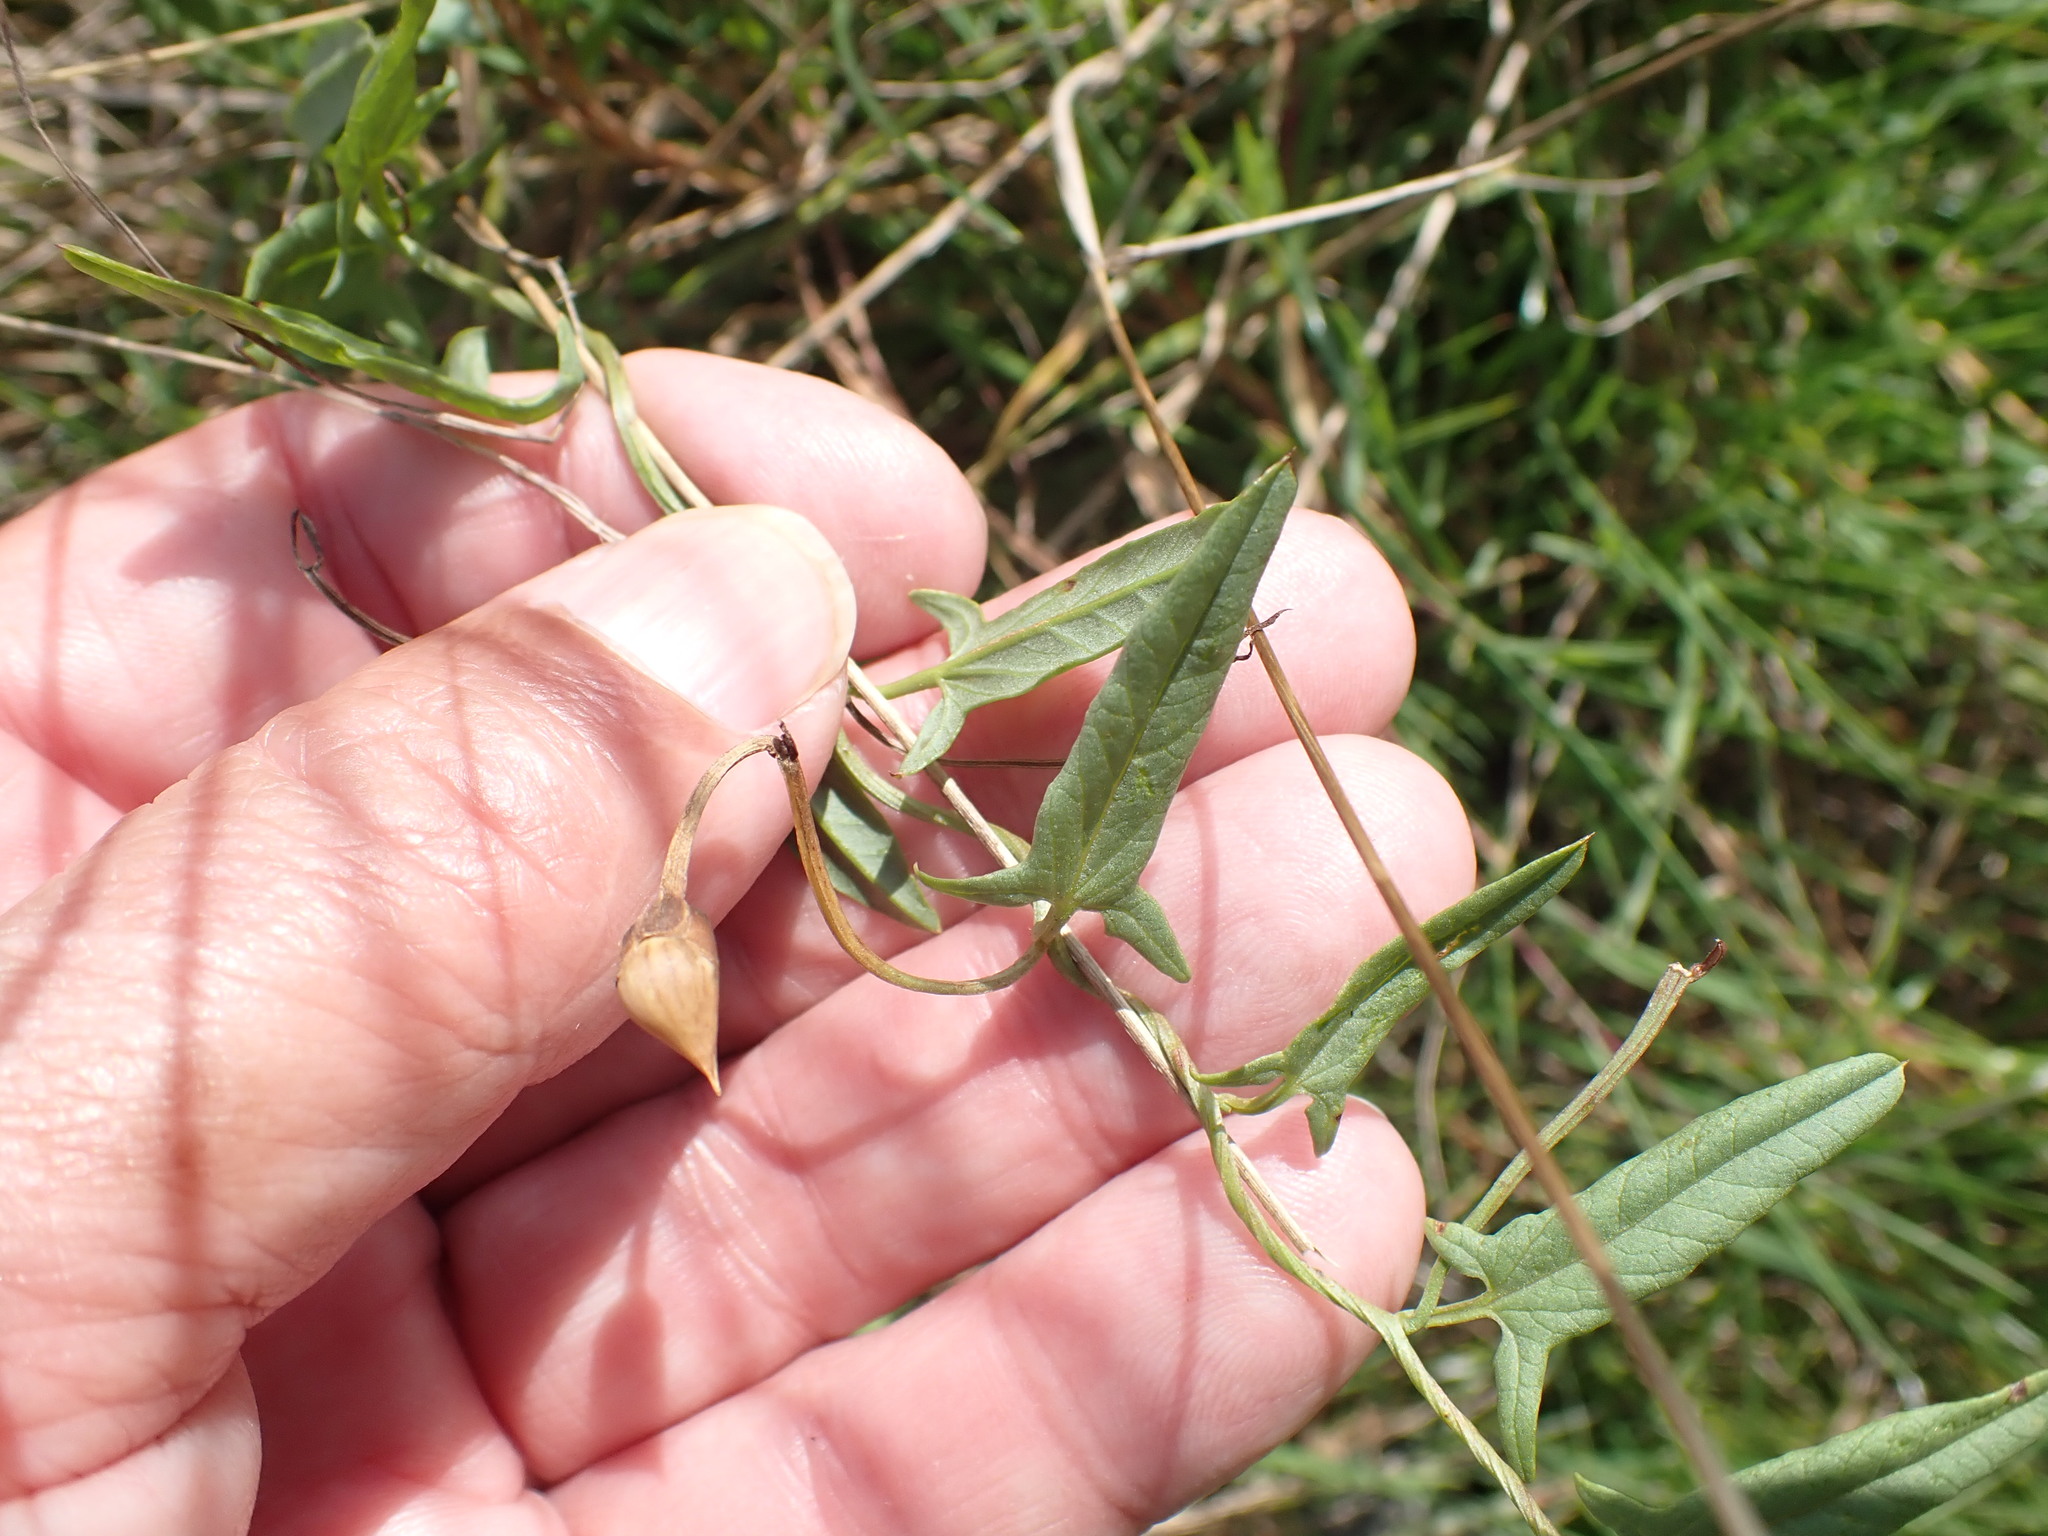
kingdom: Plantae
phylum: Tracheophyta
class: Magnoliopsida
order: Solanales
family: Convolvulaceae
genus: Convolvulus
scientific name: Convolvulus arvensis
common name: Field bindweed
